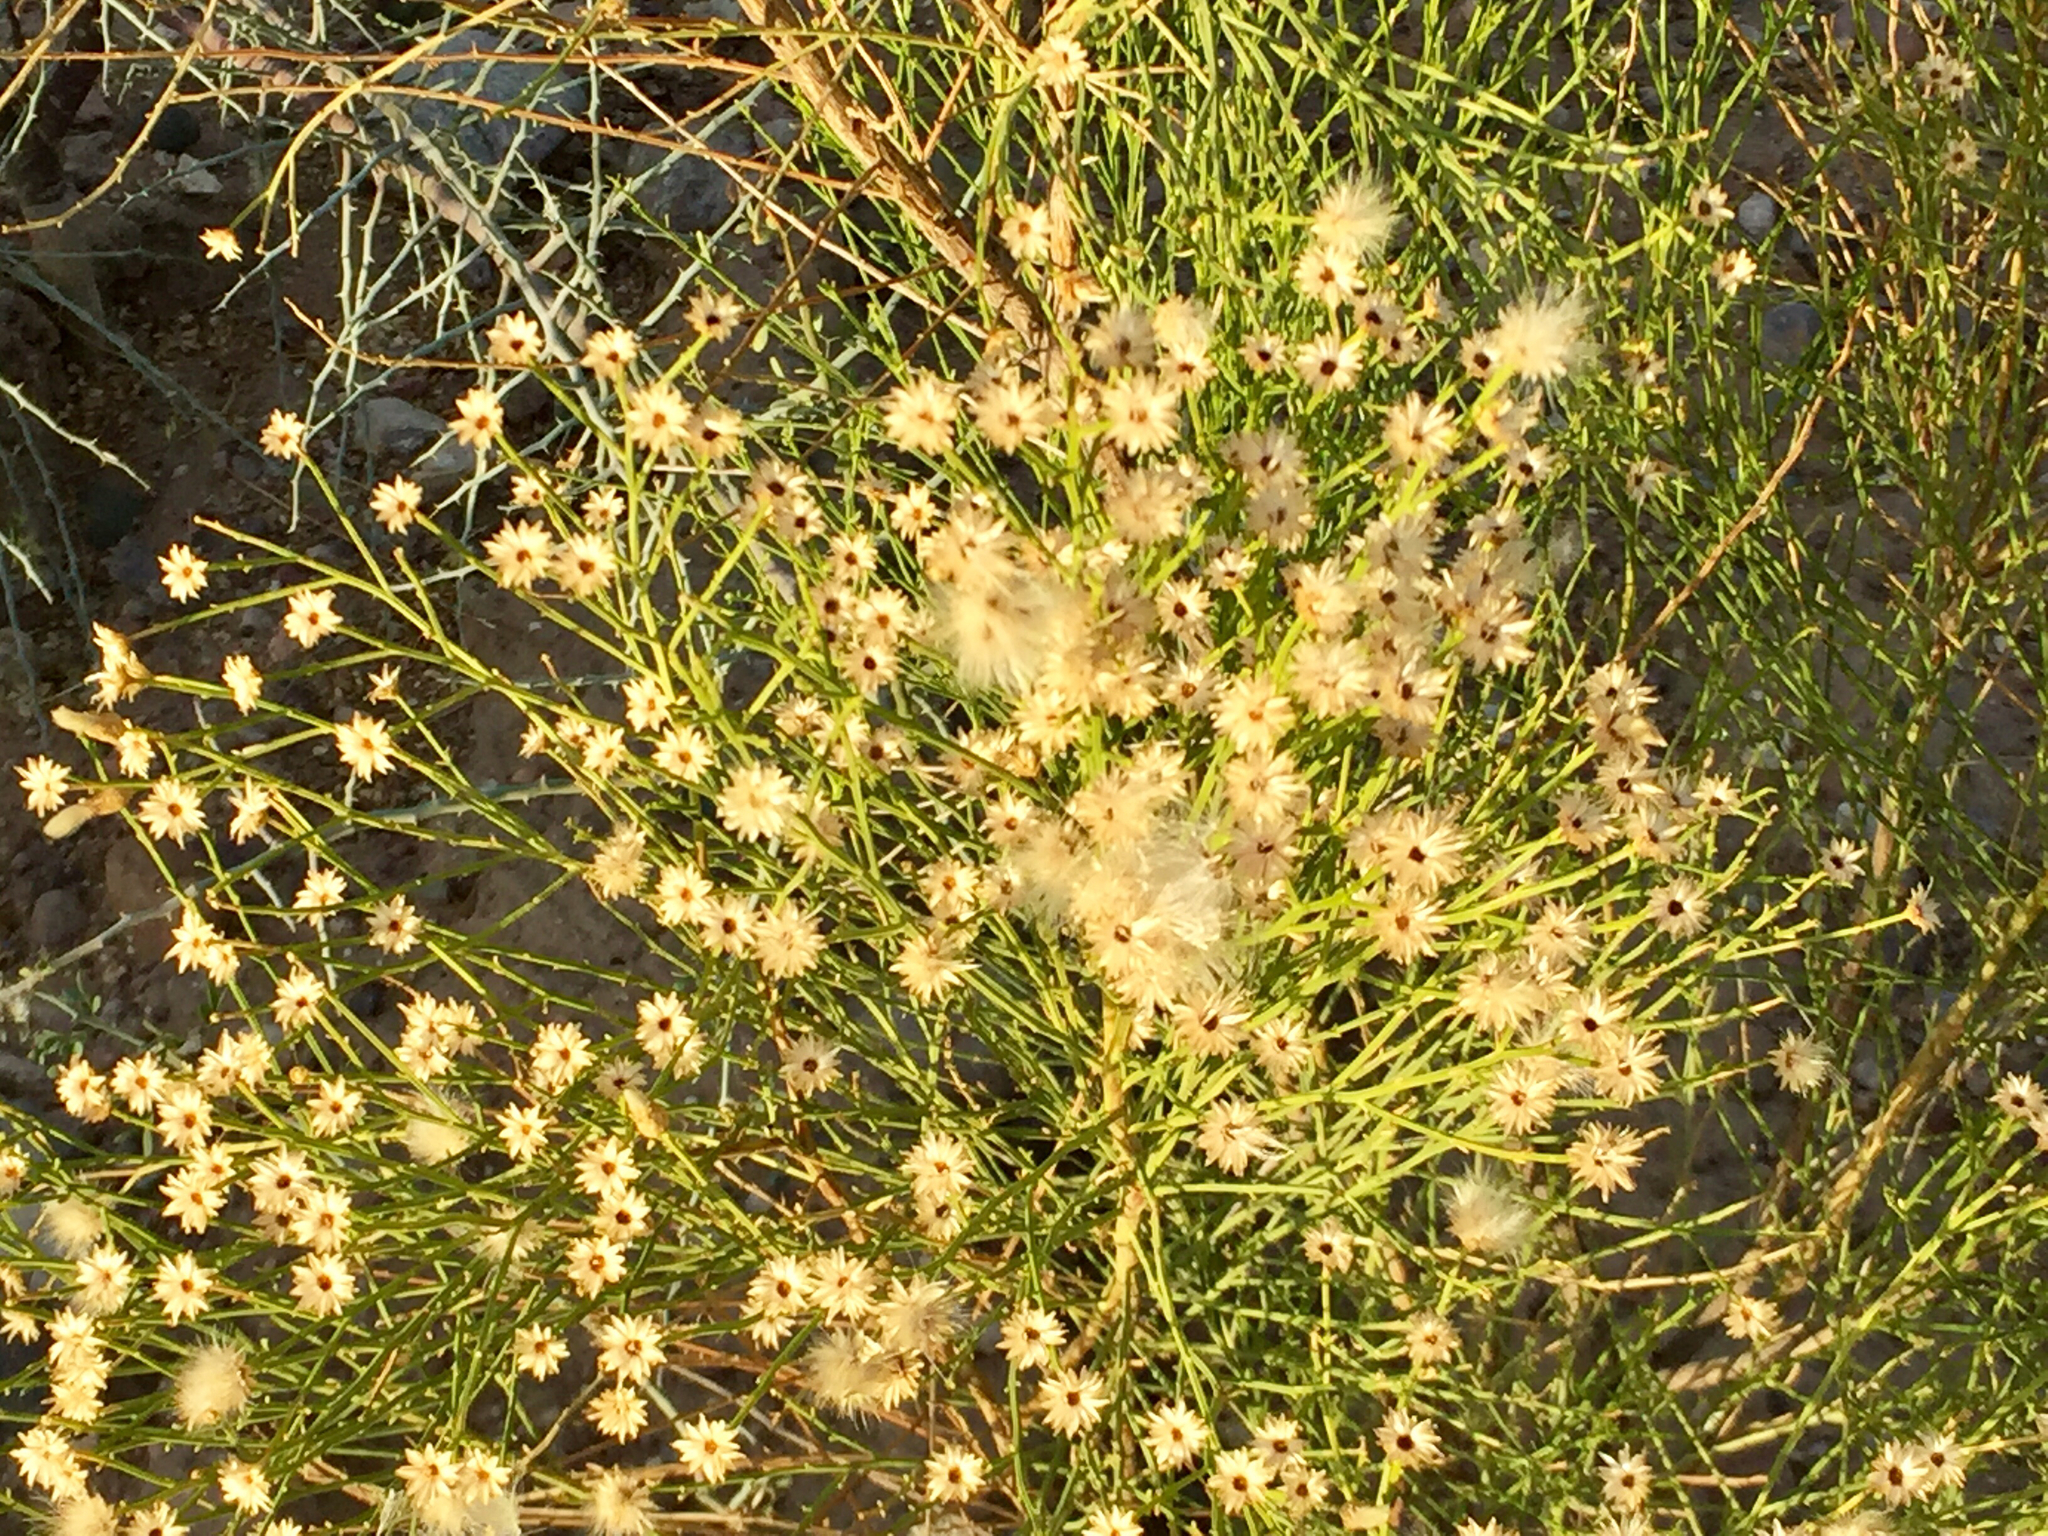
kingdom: Plantae
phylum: Tracheophyta
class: Magnoliopsida
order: Asterales
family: Asteraceae
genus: Baccharis
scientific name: Baccharis sarothroides
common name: Desert-broom
